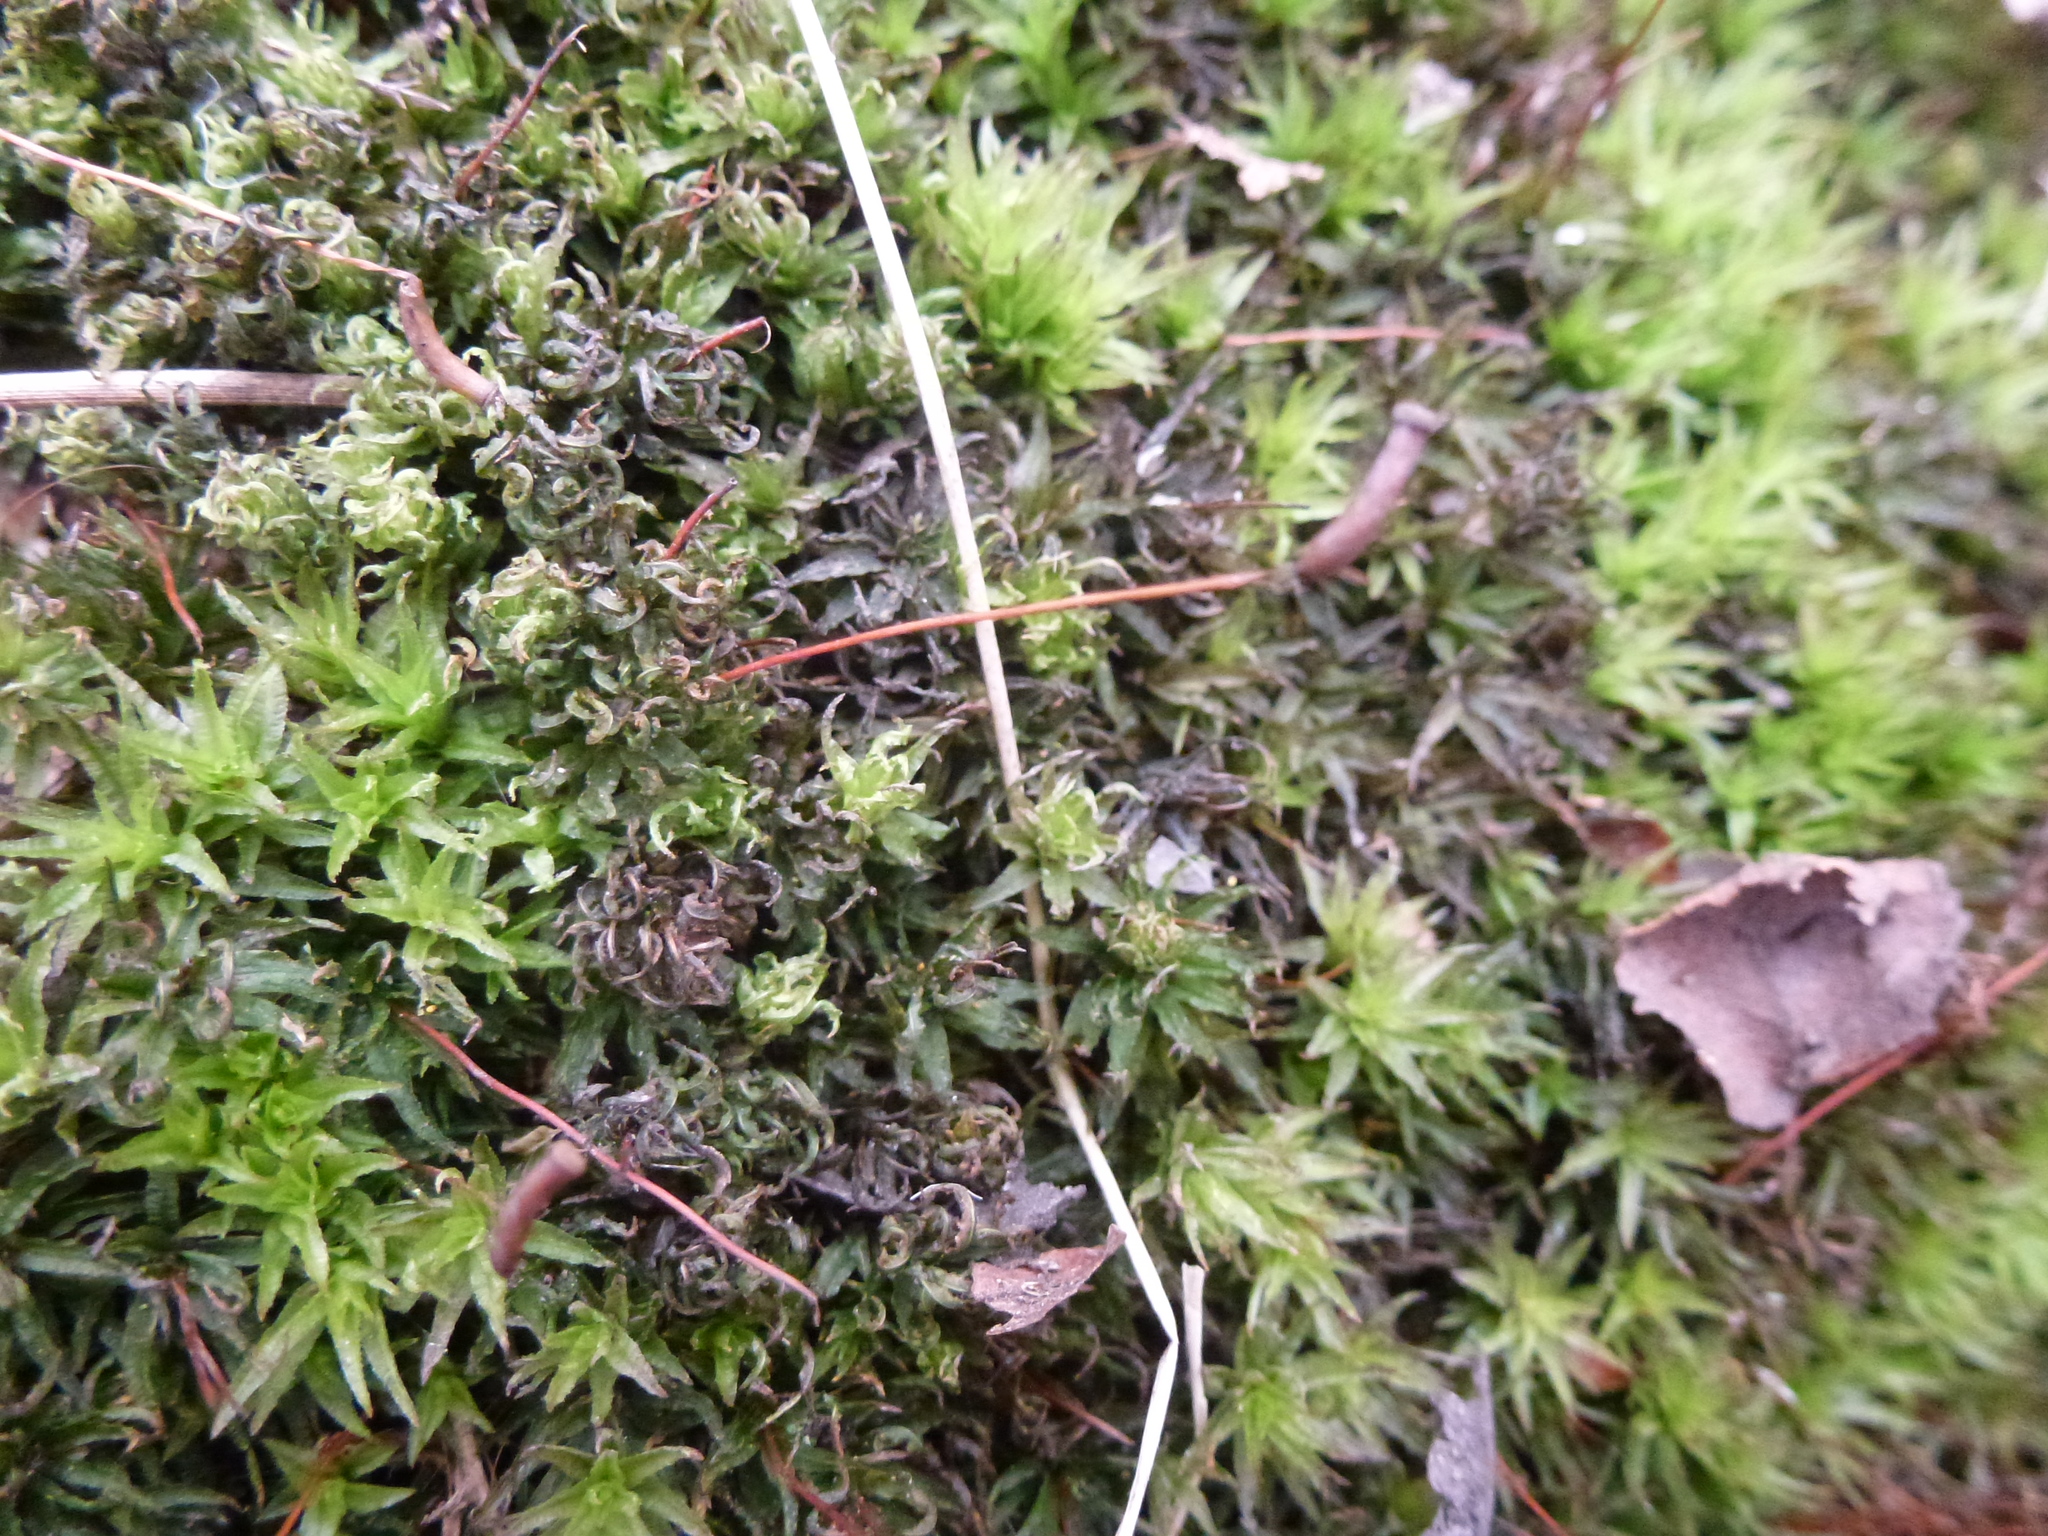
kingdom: Plantae
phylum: Bryophyta
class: Polytrichopsida
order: Polytrichales
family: Polytrichaceae
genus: Atrichum
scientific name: Atrichum undulatum
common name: Common smoothcap
